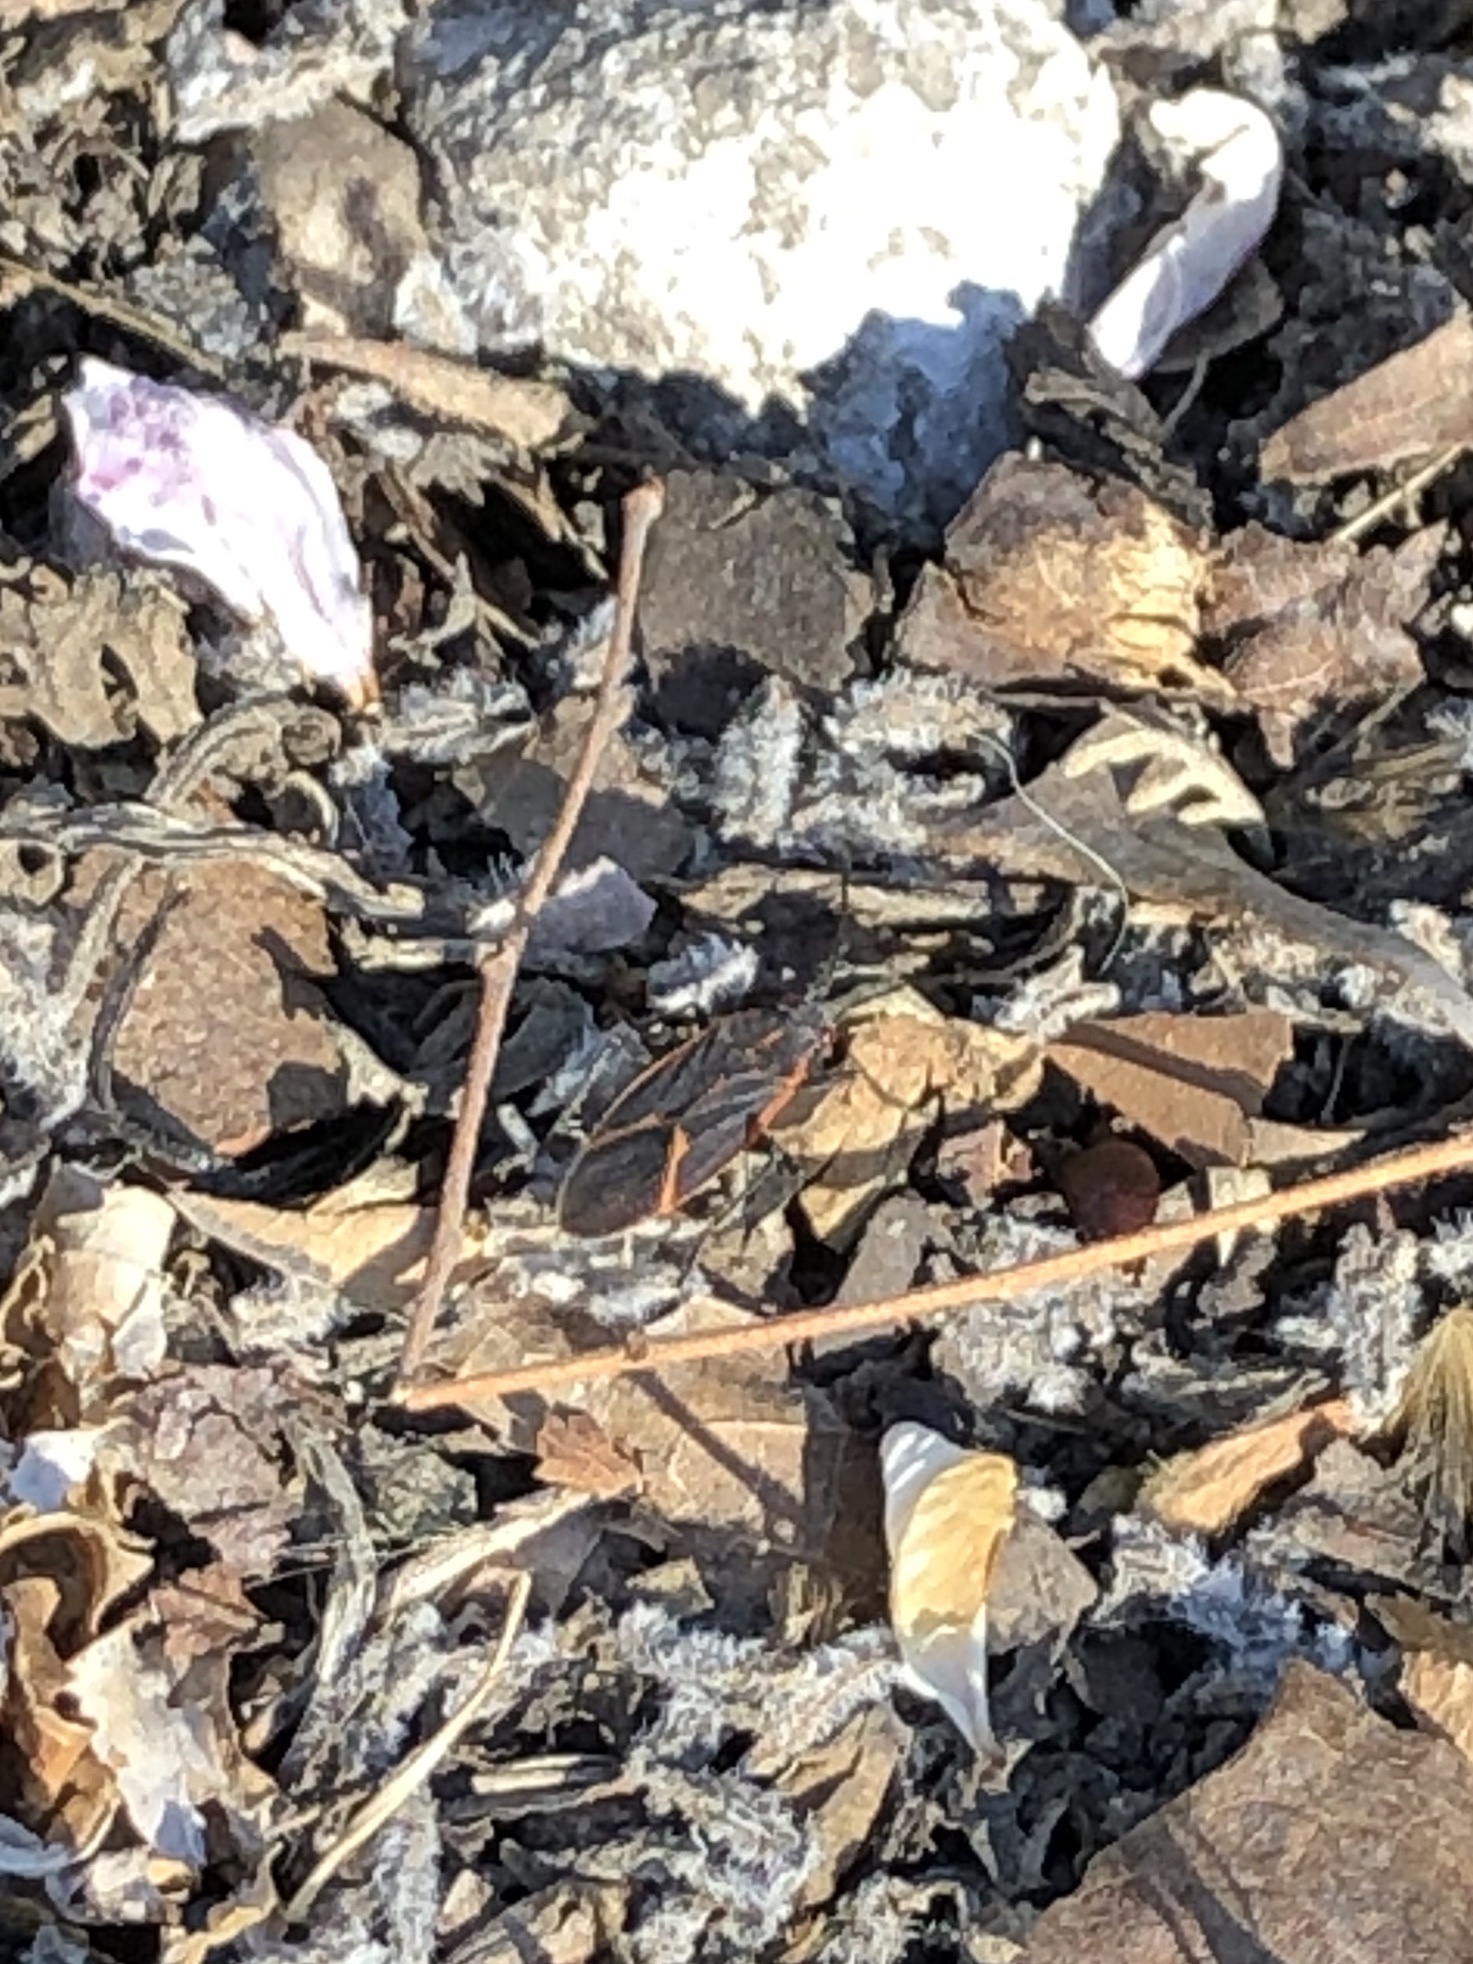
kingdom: Animalia
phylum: Arthropoda
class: Insecta
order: Hemiptera
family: Rhopalidae
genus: Boisea
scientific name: Boisea trivittata
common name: Boxelder bug
